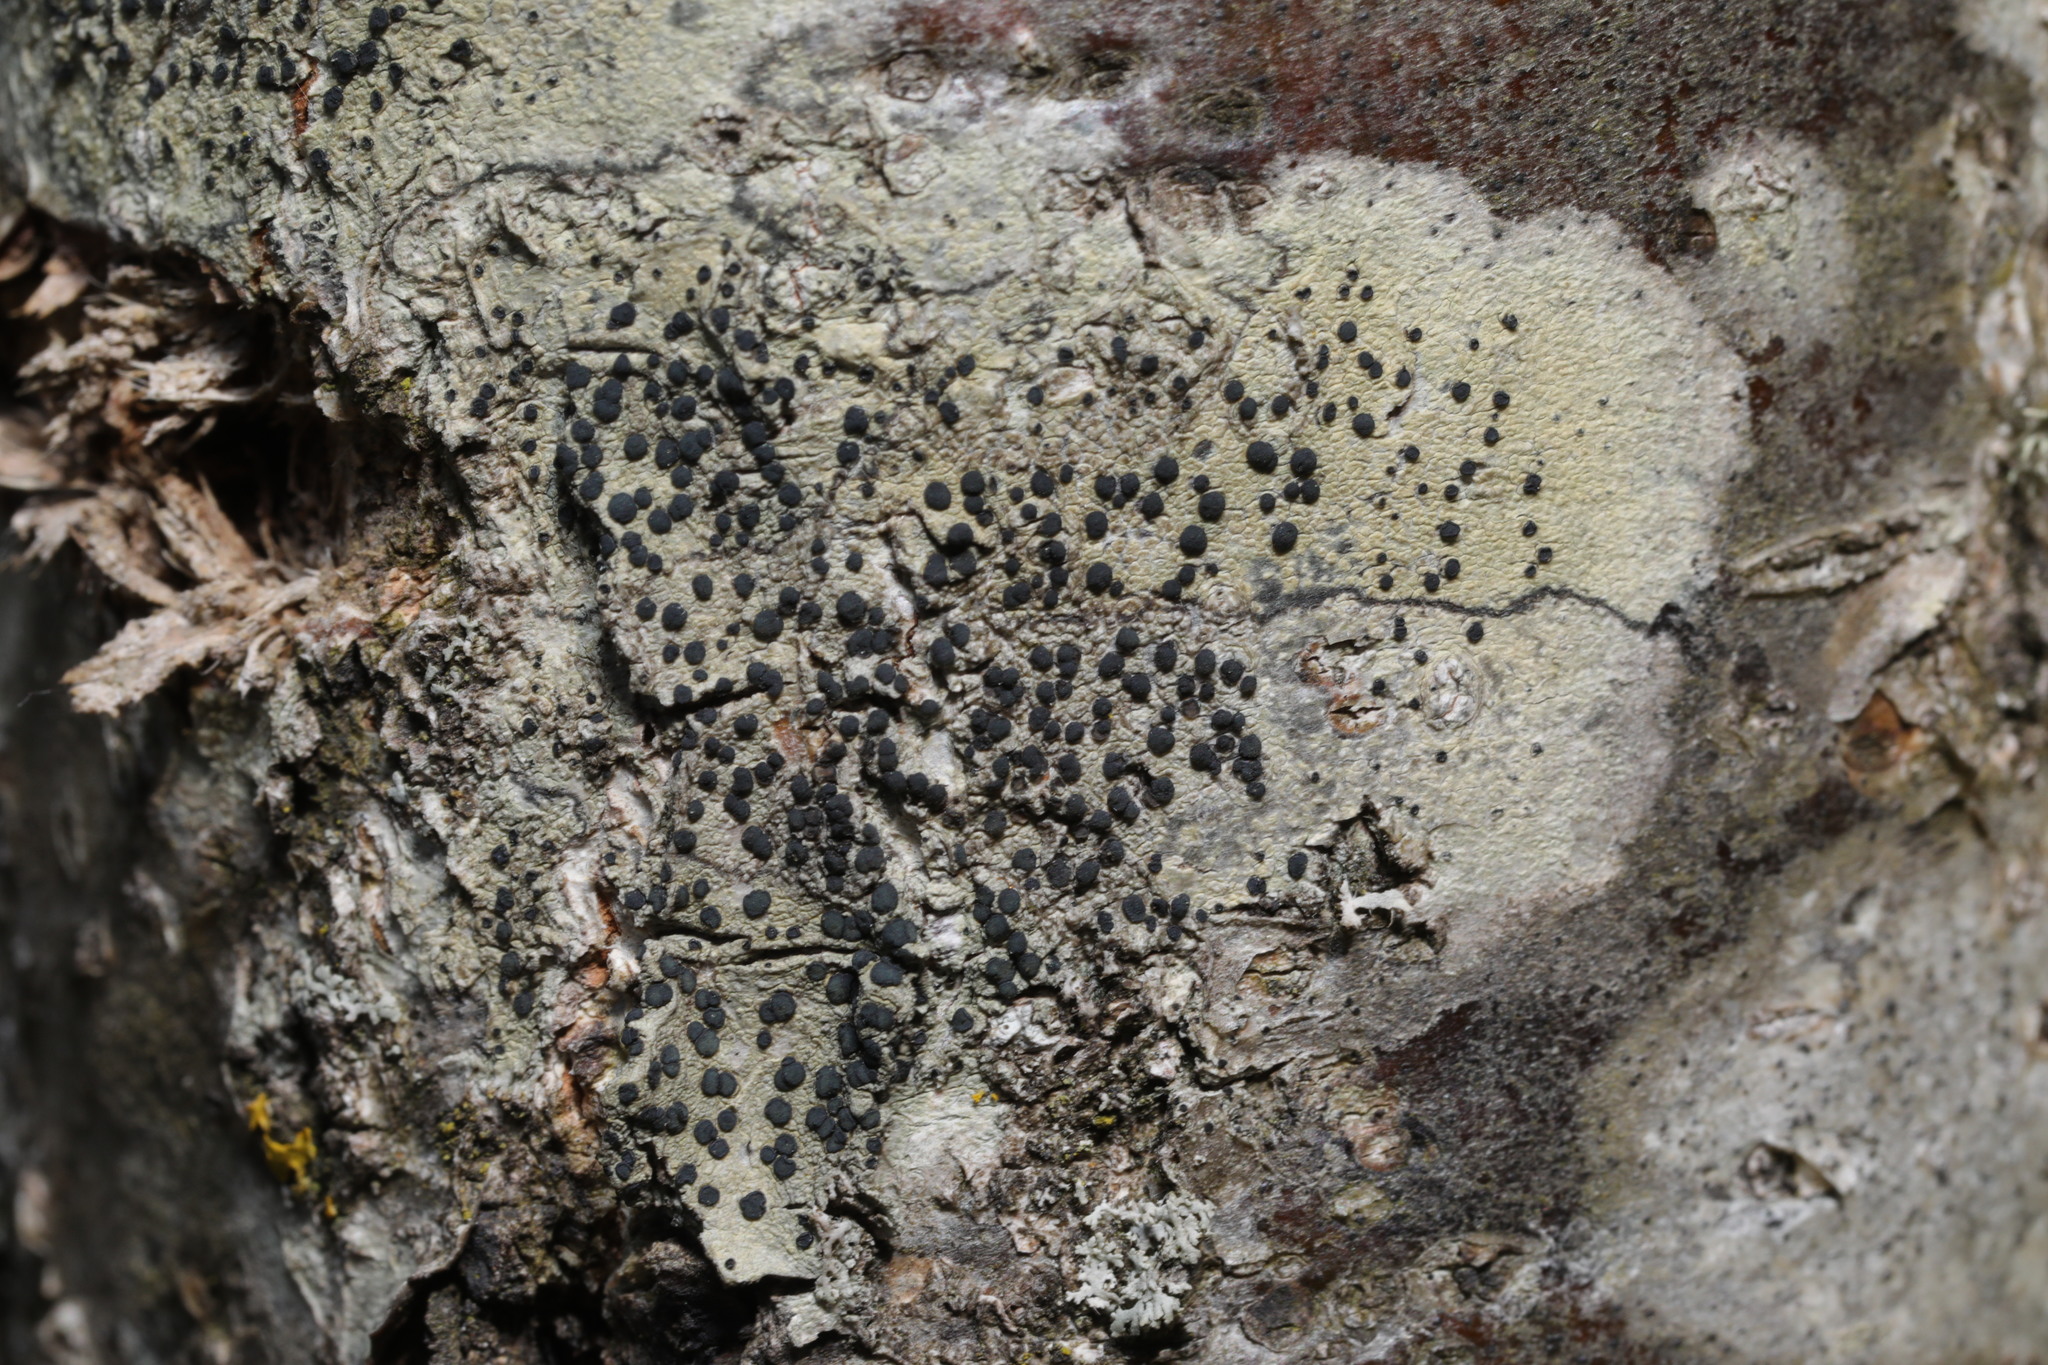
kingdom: Fungi
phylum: Ascomycota
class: Lecanoromycetes
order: Lecanorales
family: Lecanoraceae
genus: Lecidella
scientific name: Lecidella elaeochroma
